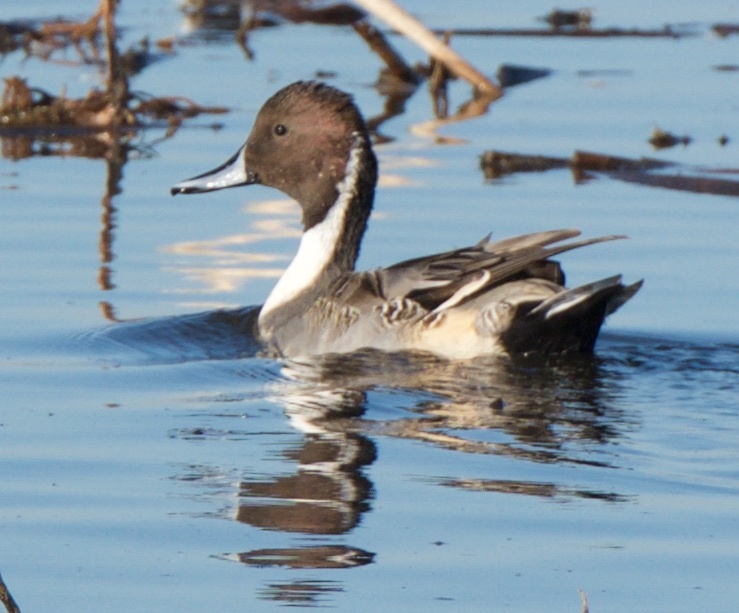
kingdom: Animalia
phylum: Chordata
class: Aves
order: Anseriformes
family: Anatidae
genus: Anas
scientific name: Anas acuta
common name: Northern pintail
